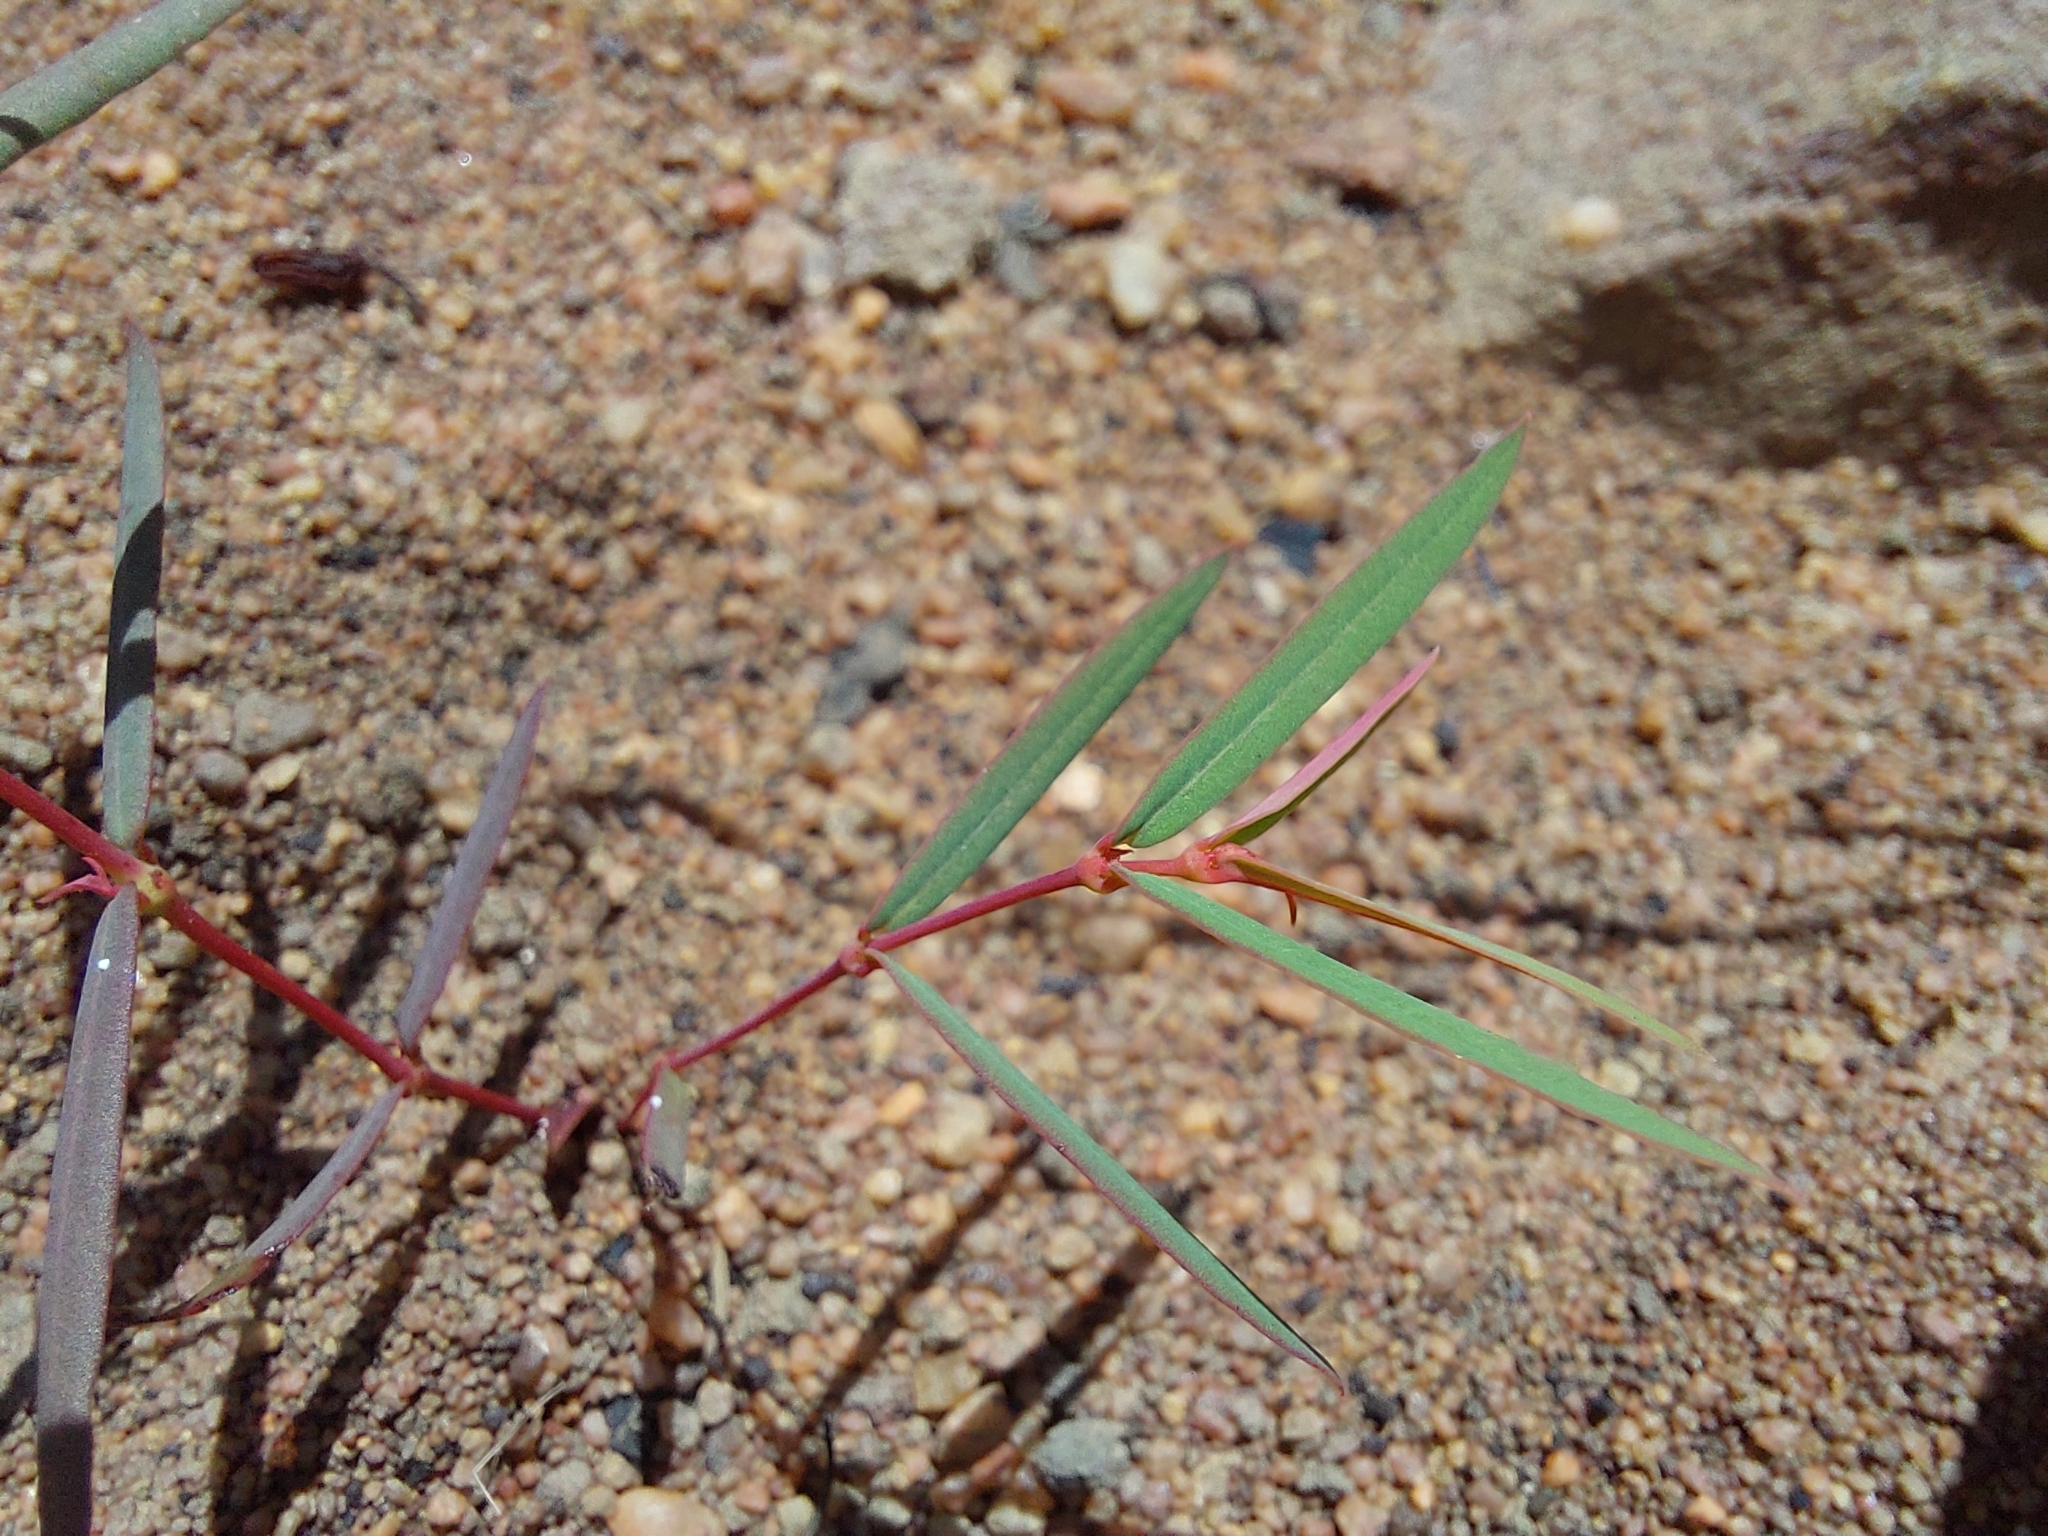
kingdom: Plantae
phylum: Tracheophyta
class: Magnoliopsida
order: Malpighiales
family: Euphorbiaceae
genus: Euphorbia
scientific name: Euphorbia neopolycnemoides
